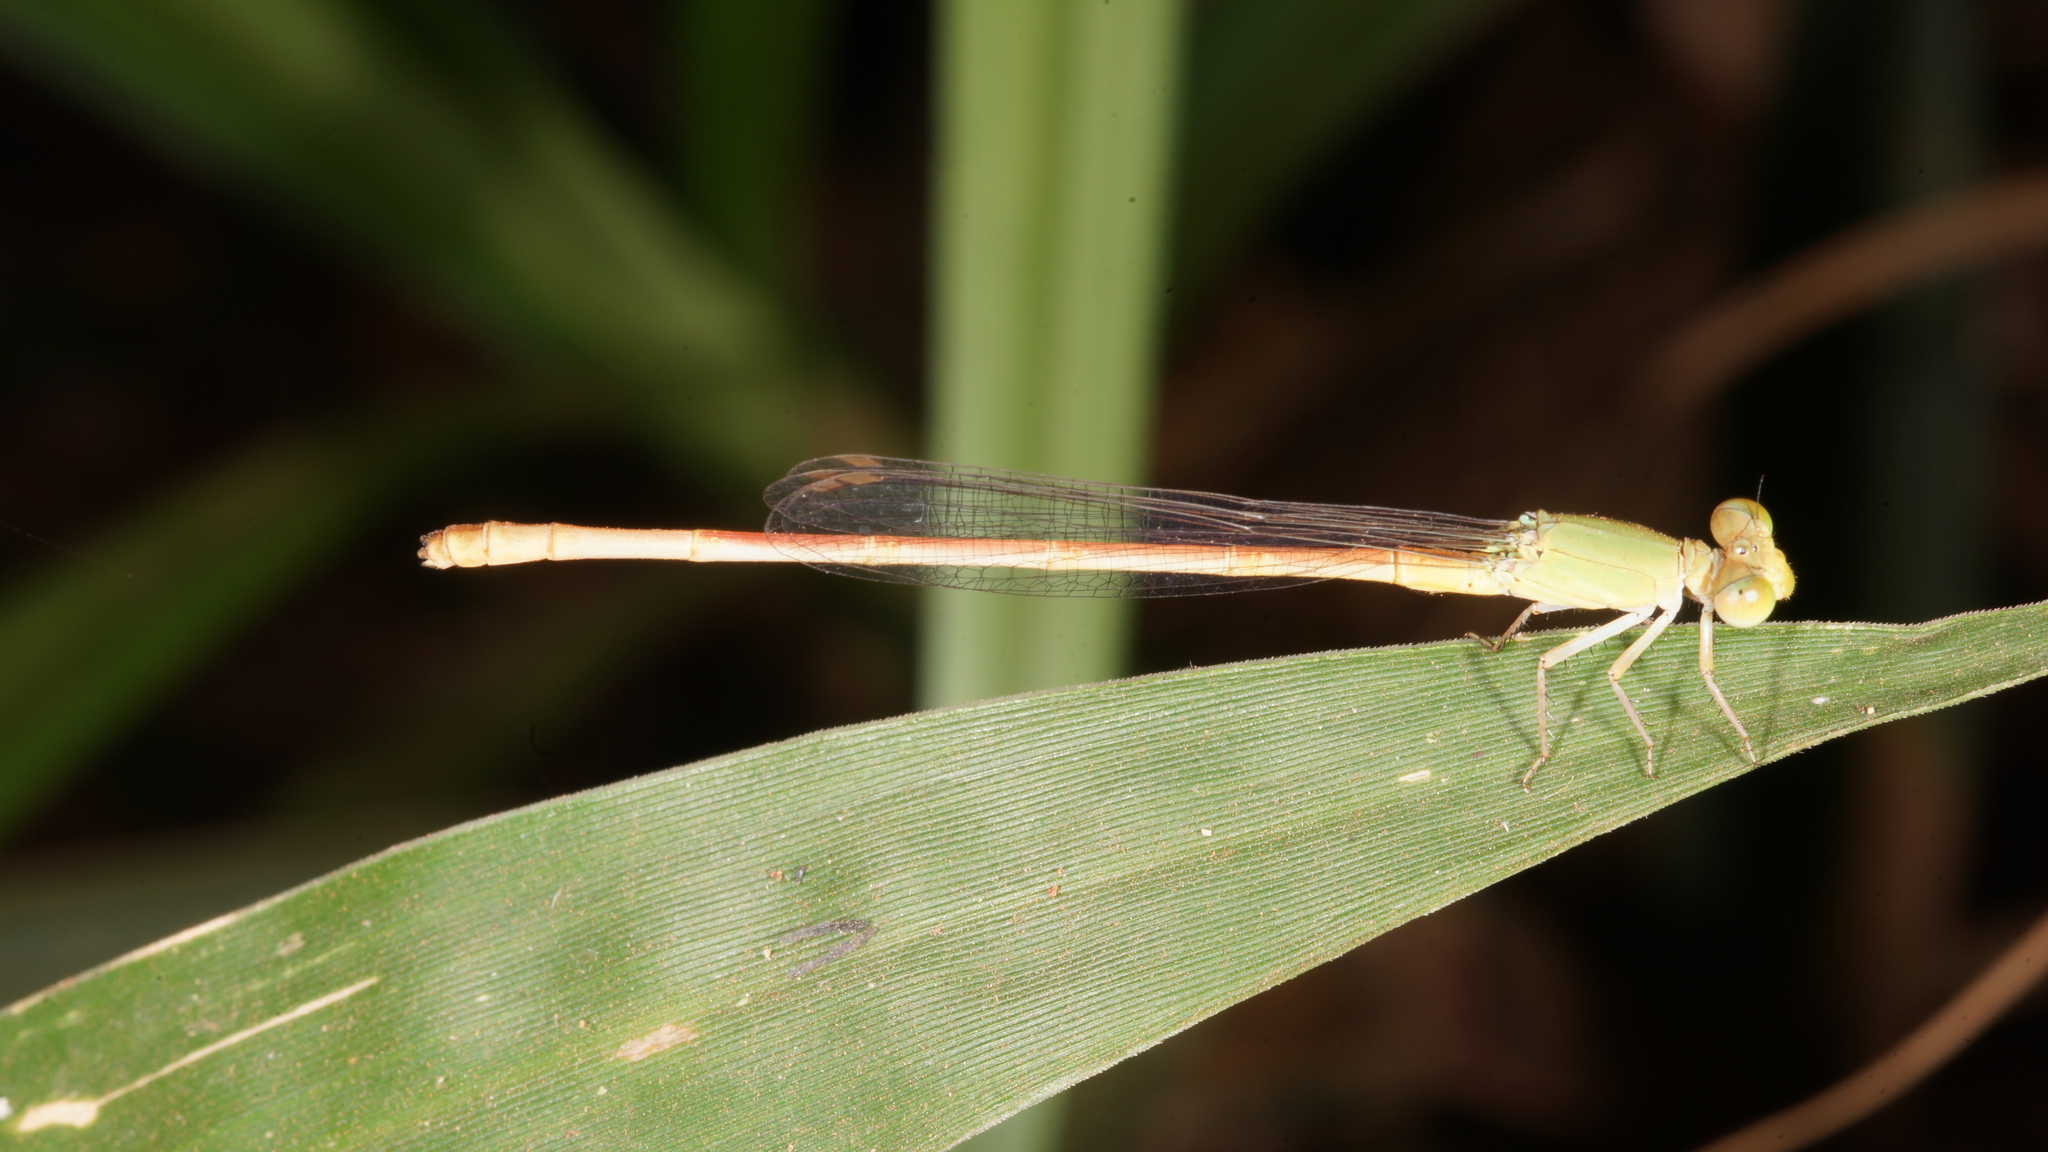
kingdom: Animalia
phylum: Arthropoda
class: Insecta
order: Odonata
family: Coenagrionidae
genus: Ceriagrion
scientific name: Ceriagrion olivaceum
